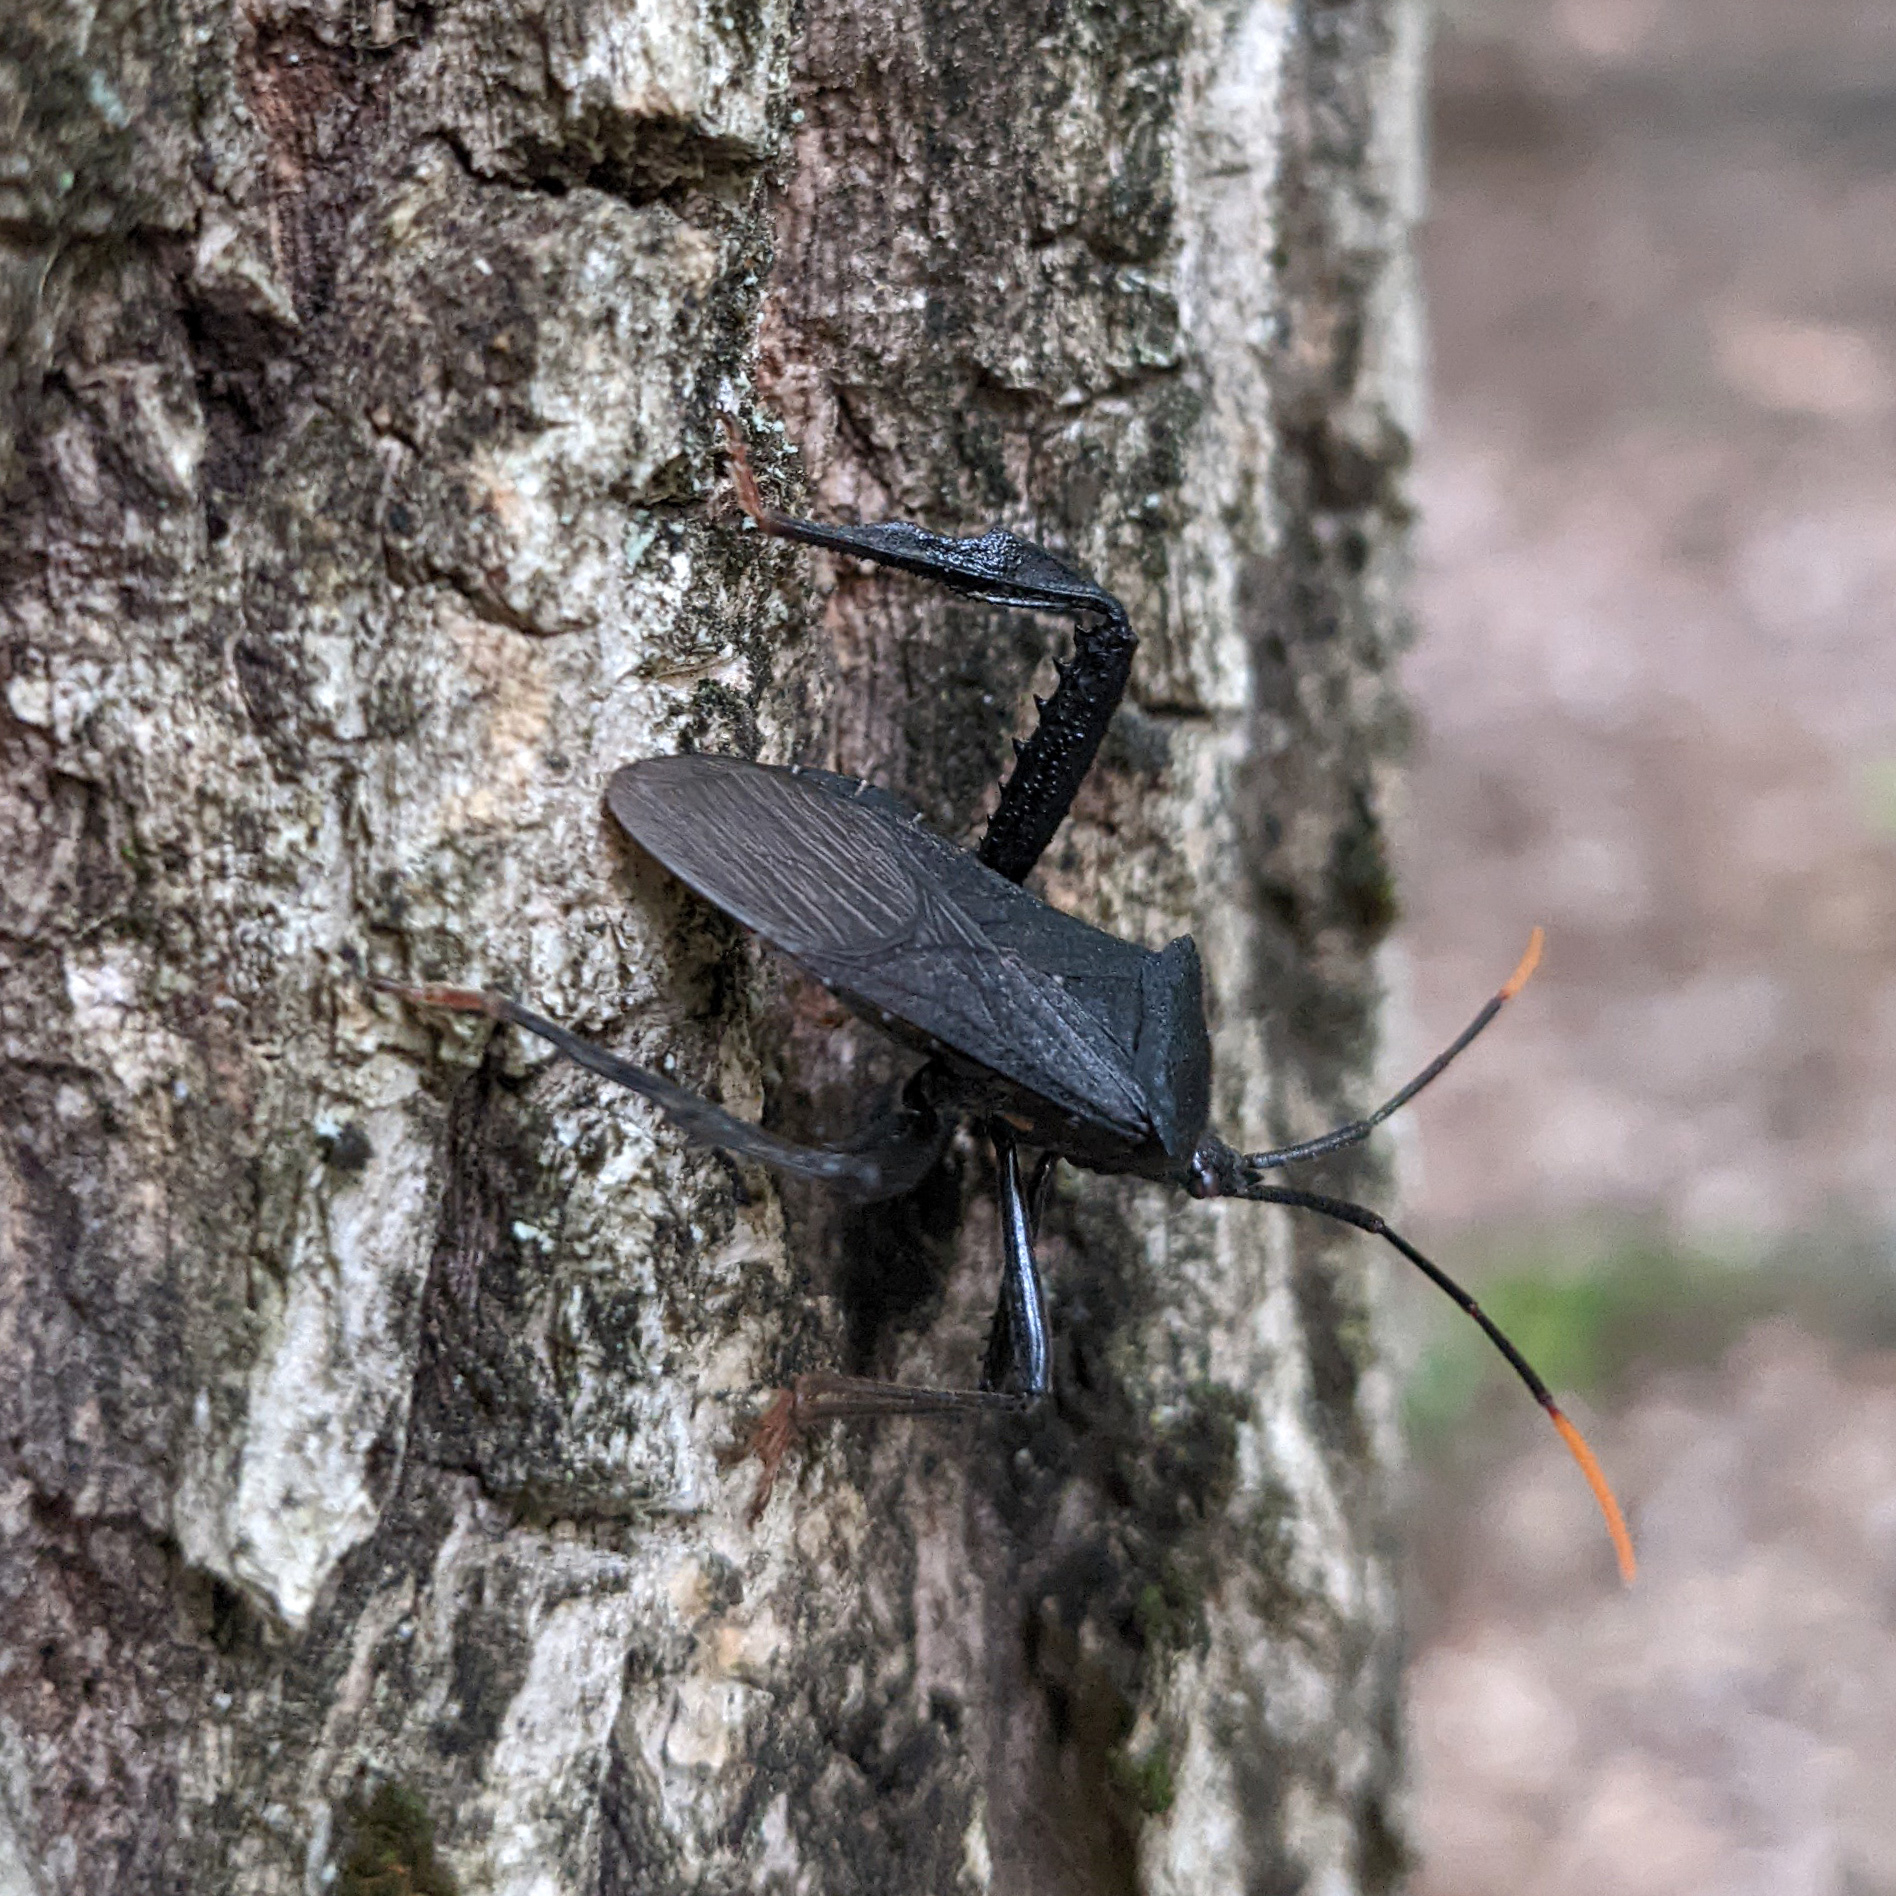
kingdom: Animalia
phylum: Arthropoda
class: Insecta
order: Hemiptera
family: Coreidae
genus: Acanthocephala
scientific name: Acanthocephala terminalis
